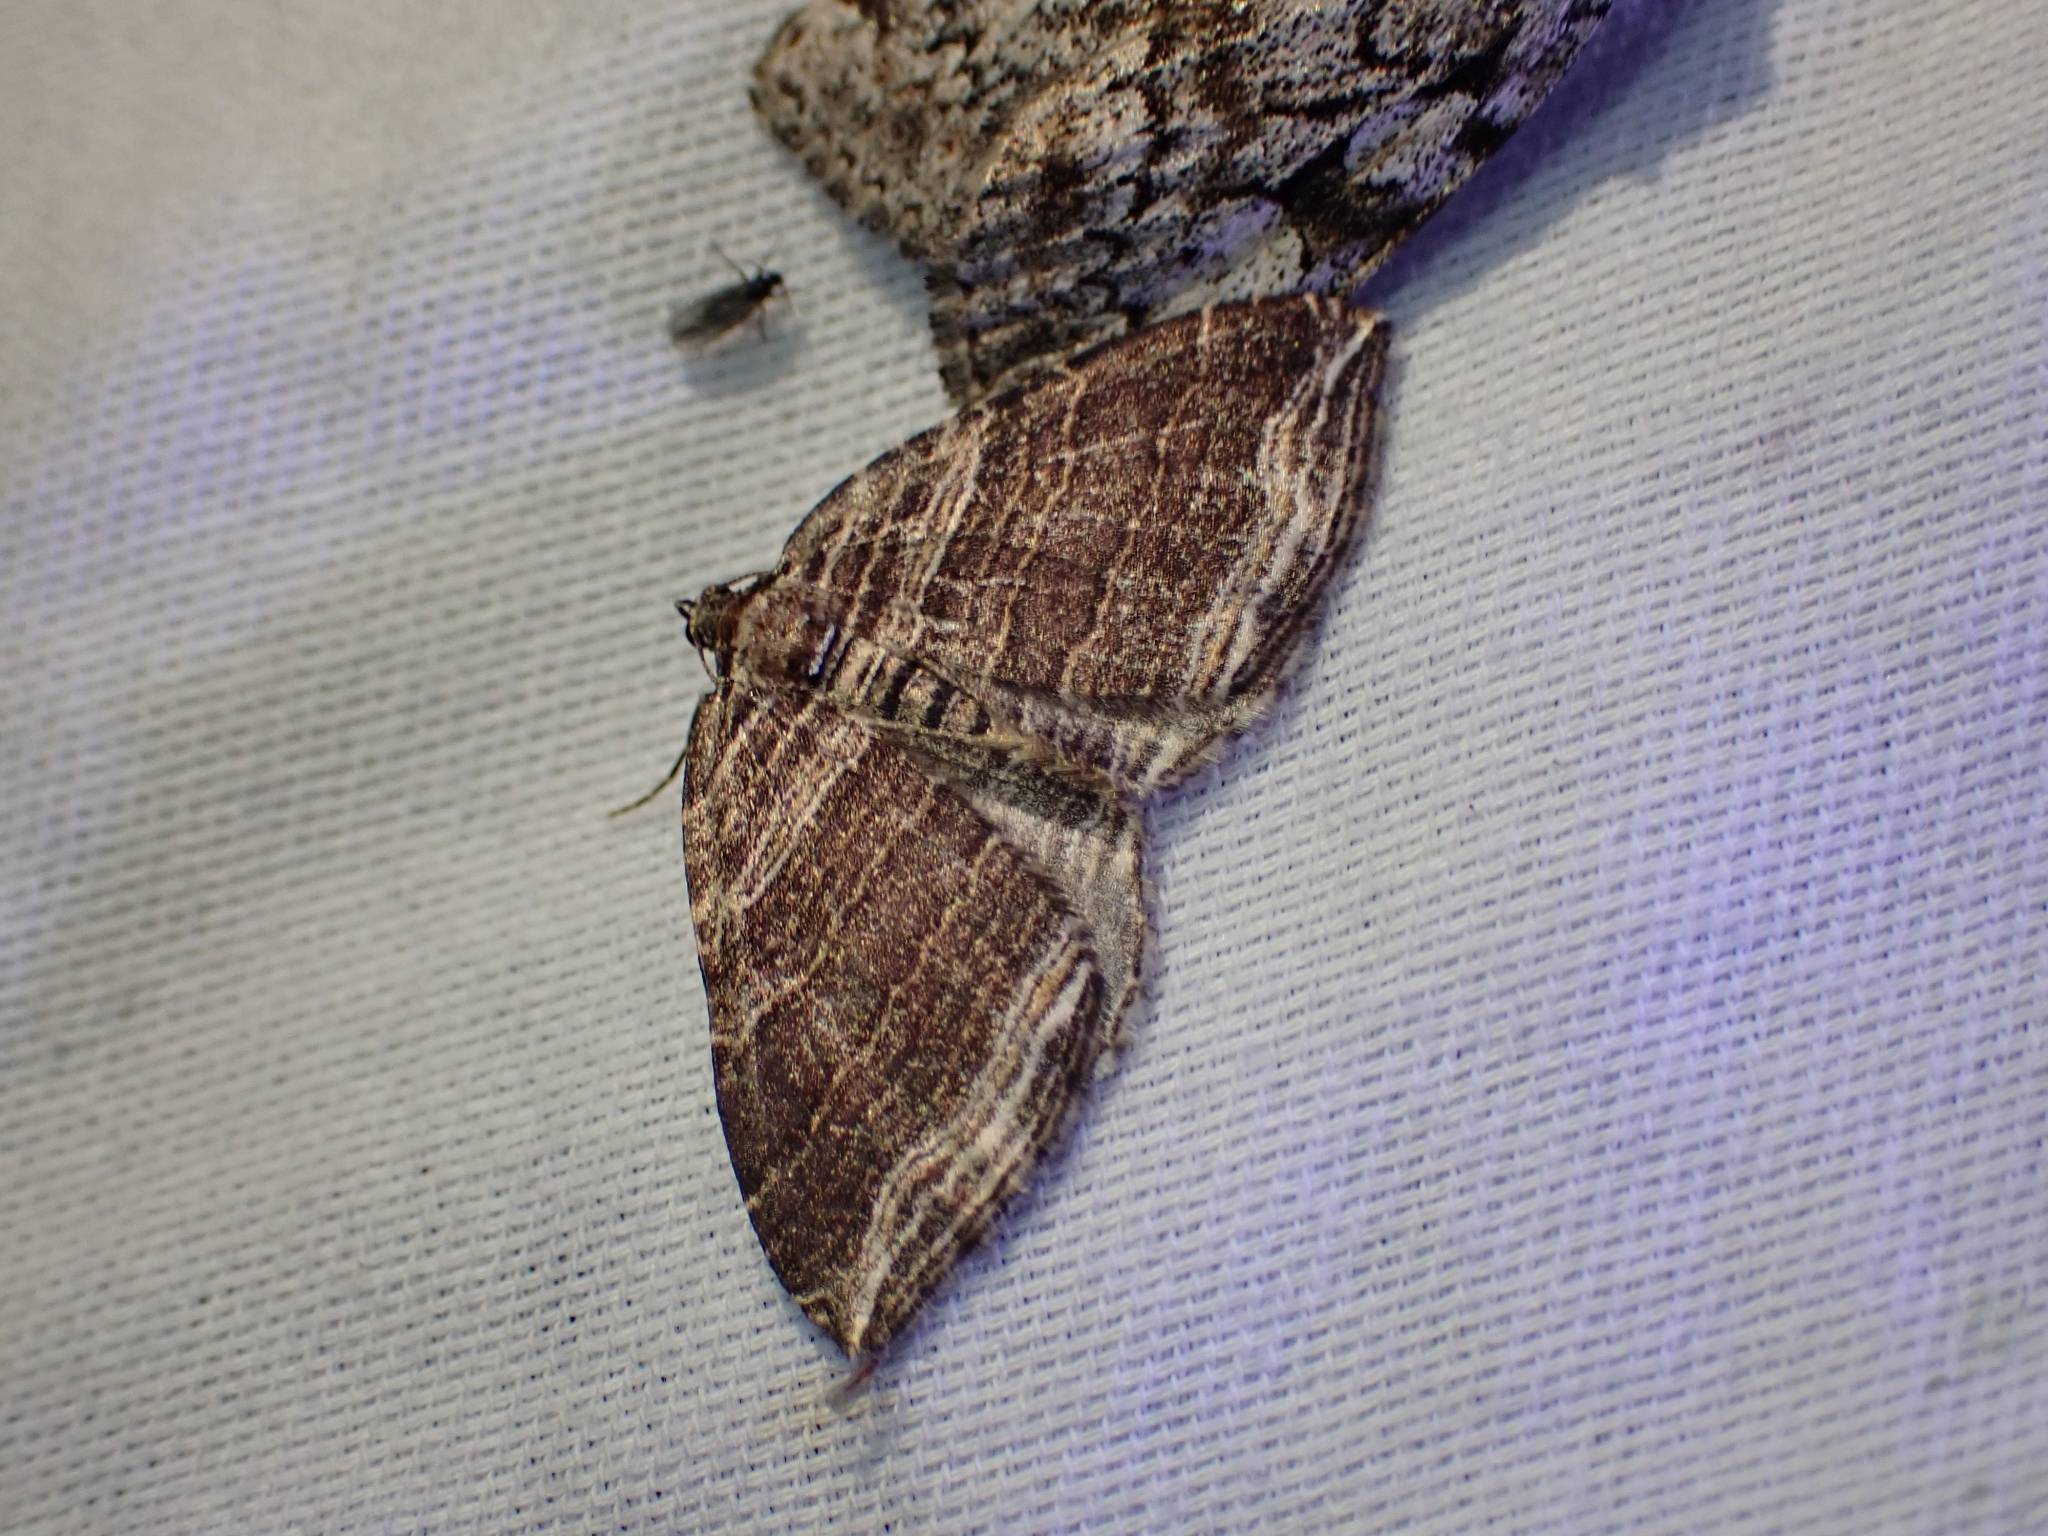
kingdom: Animalia
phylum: Arthropoda
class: Insecta
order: Lepidoptera
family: Geometridae
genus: Anticlea
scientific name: Anticlea multiferata
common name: Many-lined carpet
